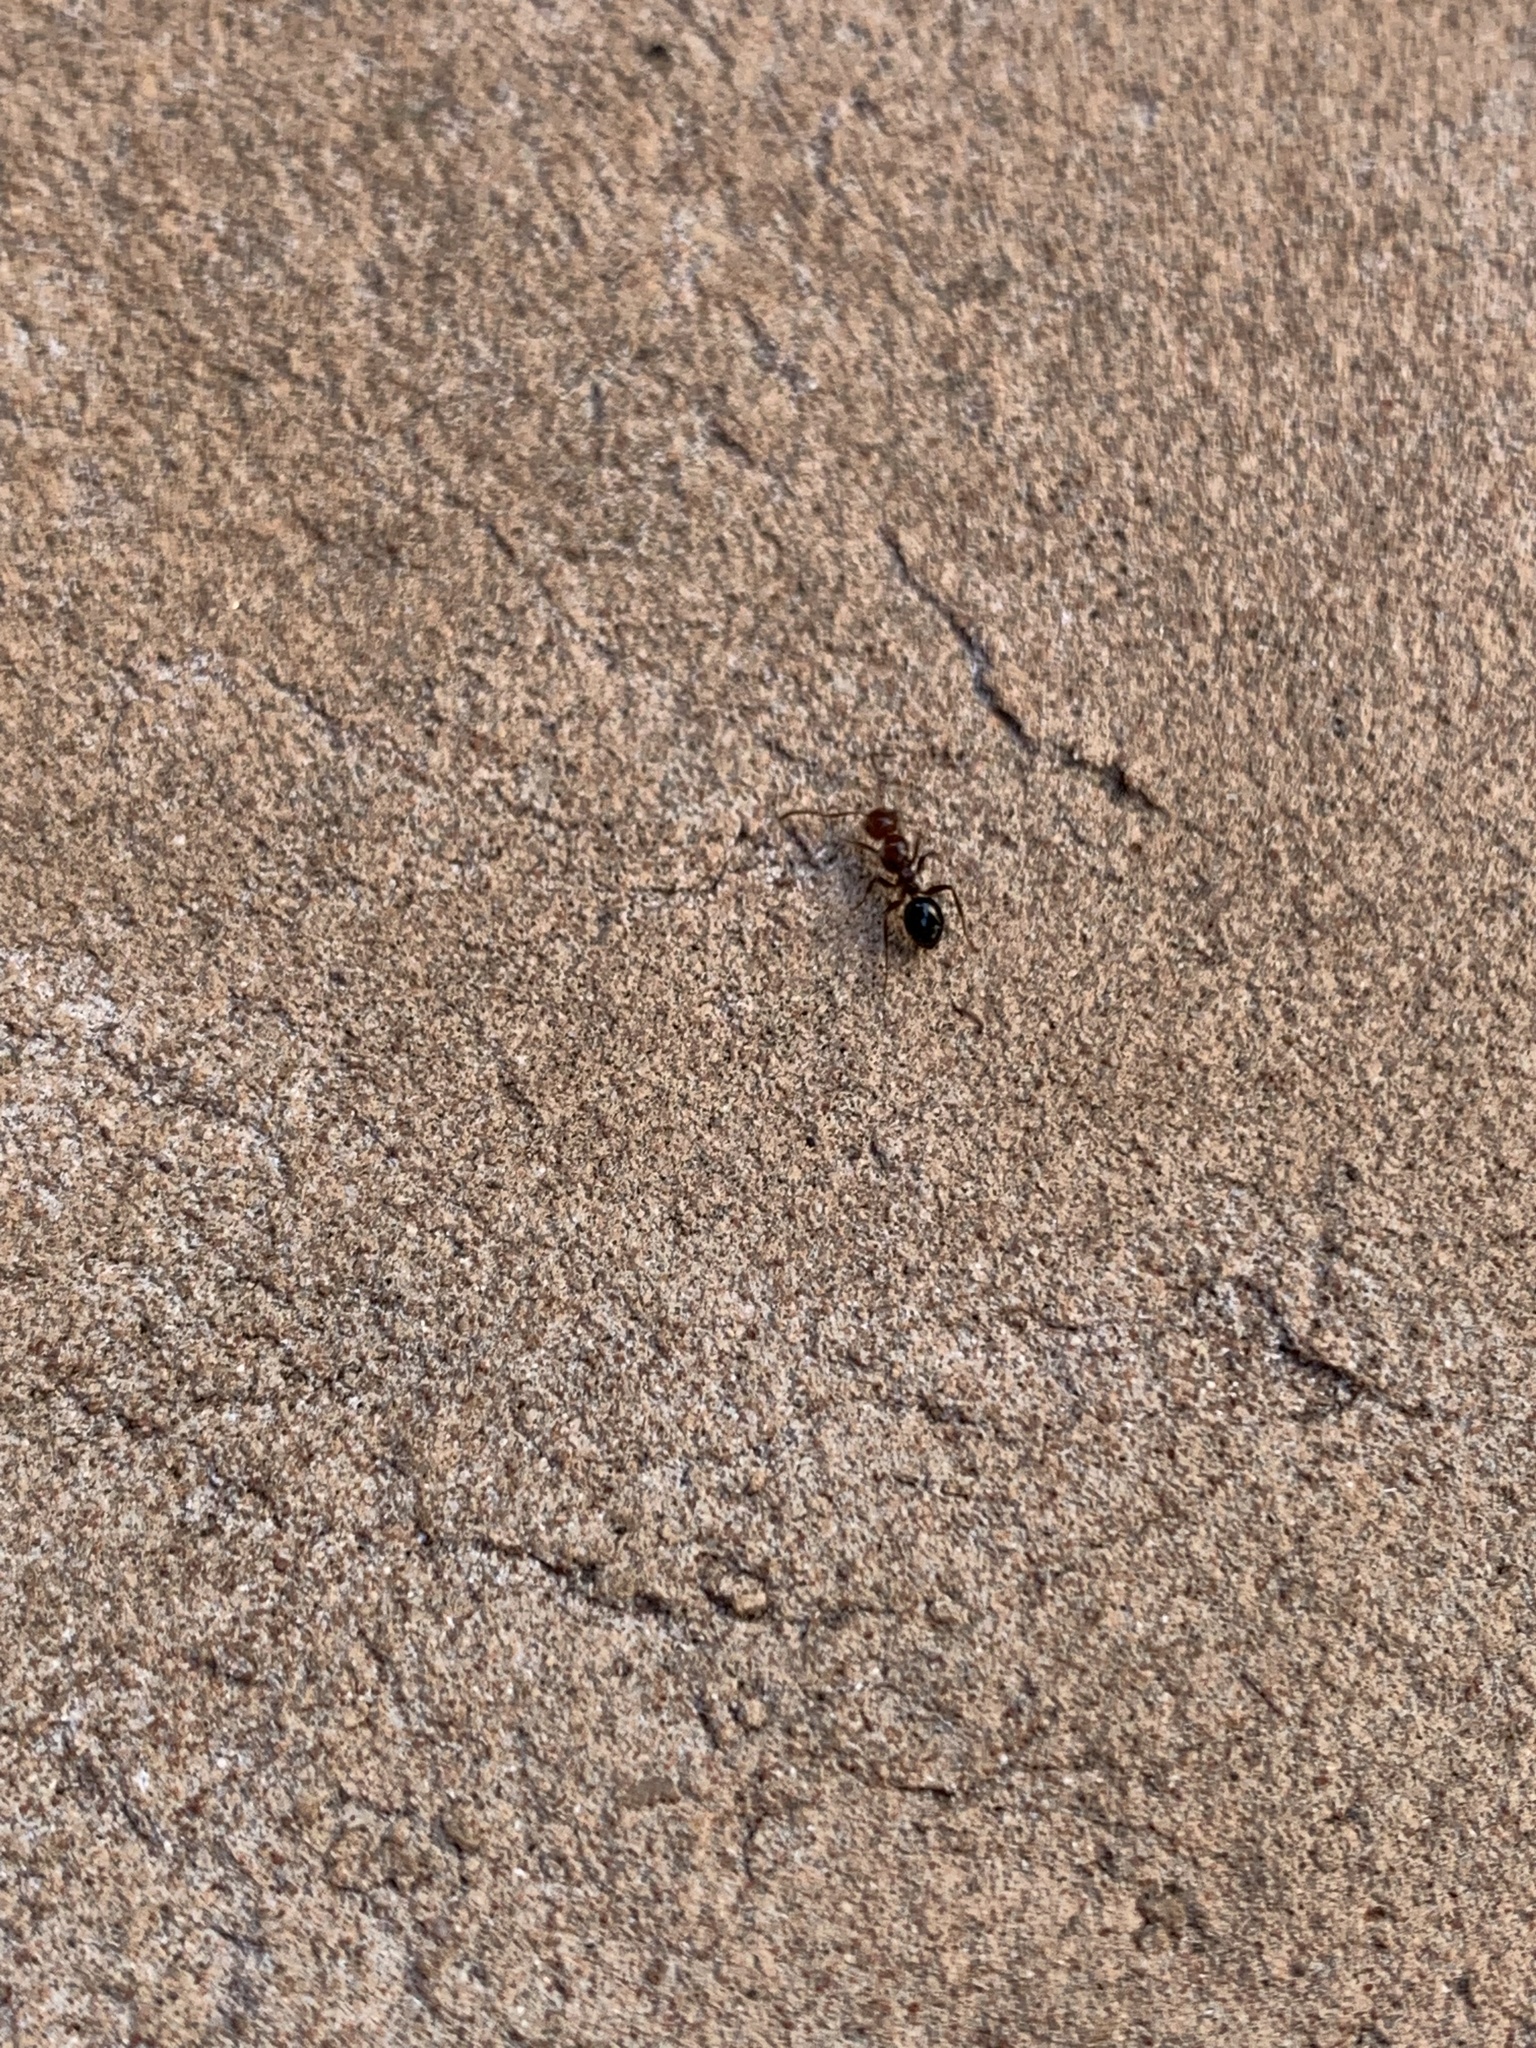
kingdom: Animalia
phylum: Arthropoda
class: Insecta
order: Hymenoptera
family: Formicidae
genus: Camponotus
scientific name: Camponotus lateralis
